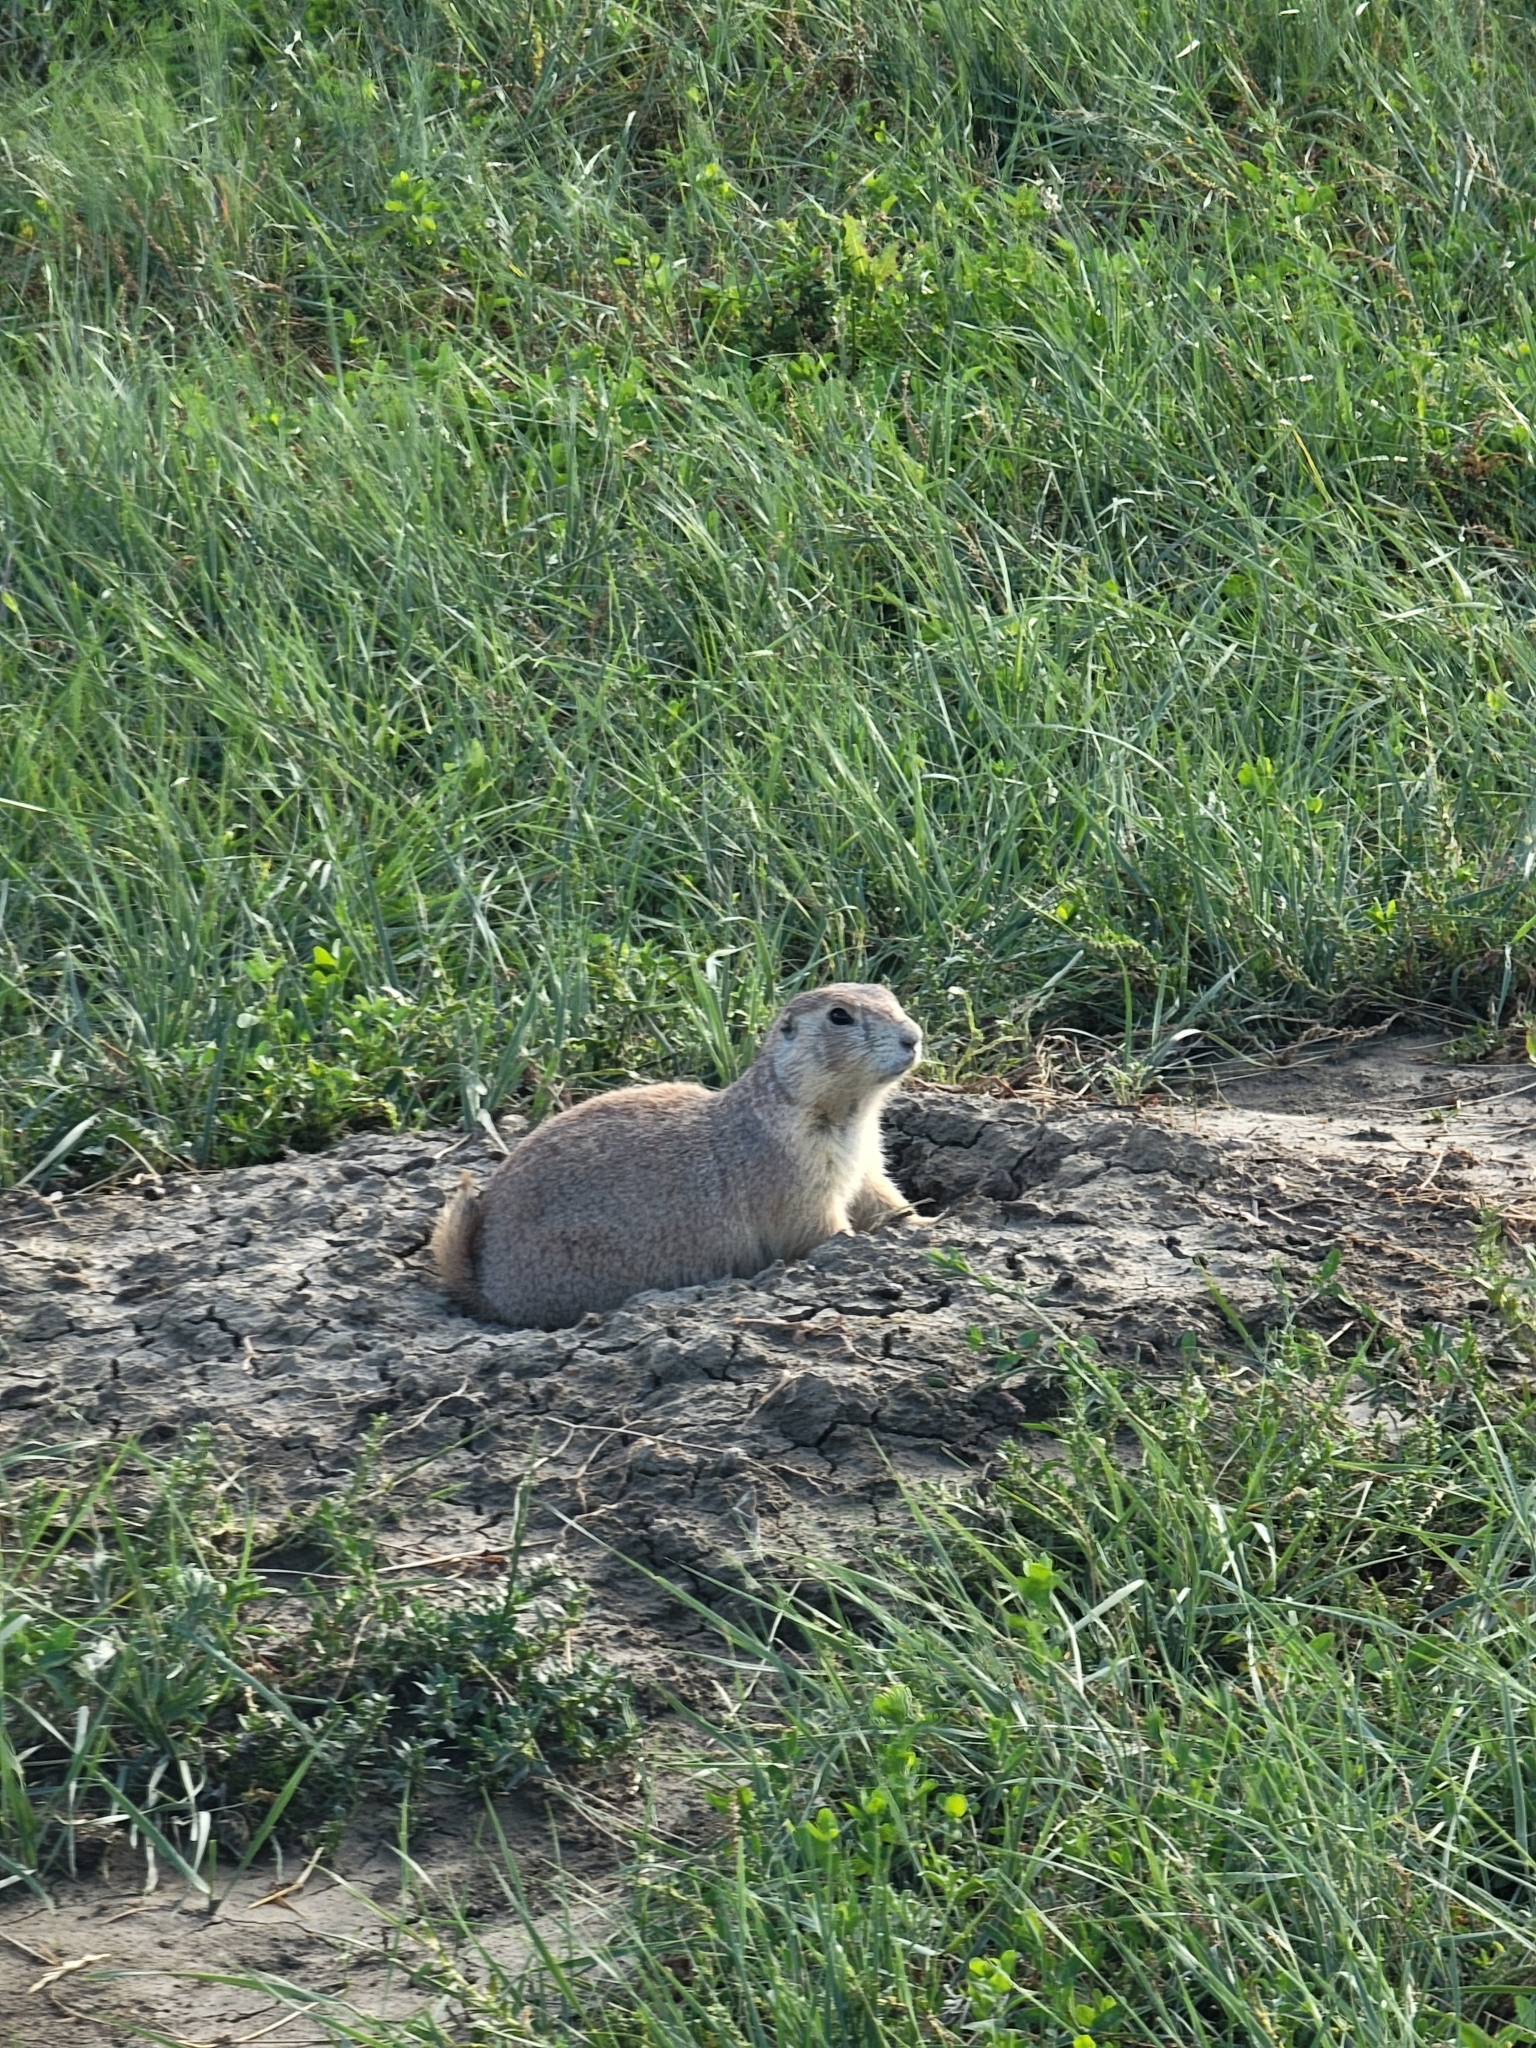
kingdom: Animalia
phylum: Chordata
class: Mammalia
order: Rodentia
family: Sciuridae
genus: Cynomys
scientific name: Cynomys ludovicianus
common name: Black-tailed prairie dog
